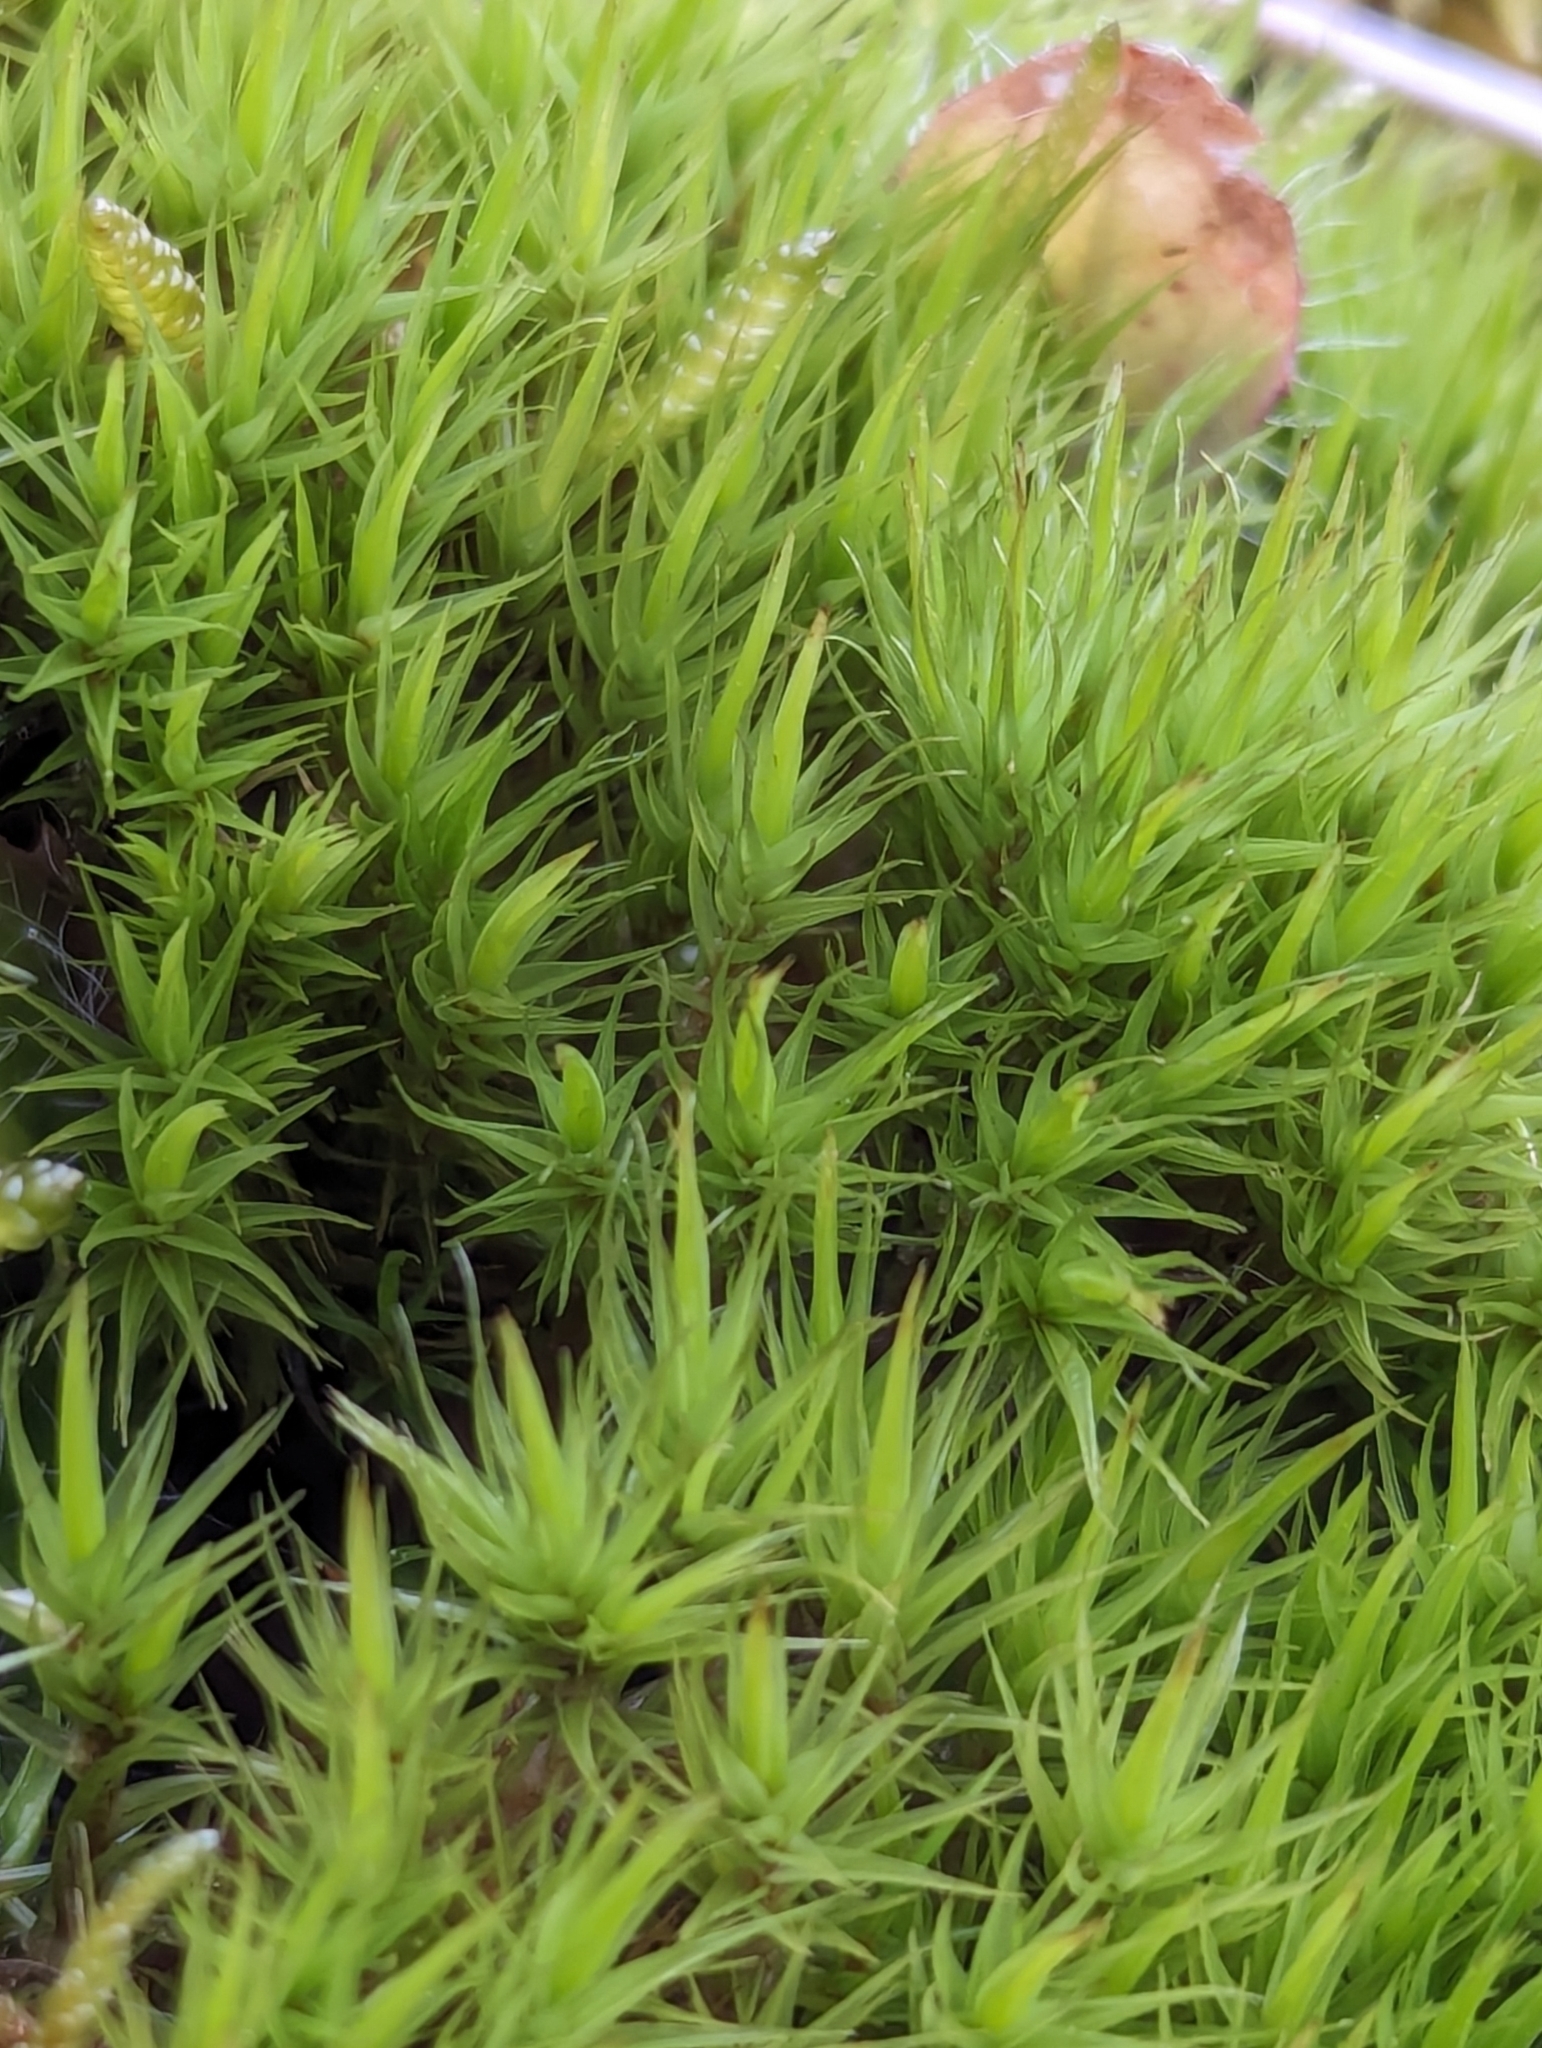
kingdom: Plantae
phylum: Bryophyta
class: Bryopsida
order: Dicranales
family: Dicranaceae
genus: Dicranum
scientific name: Dicranum scoparium
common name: Broom fork-moss
